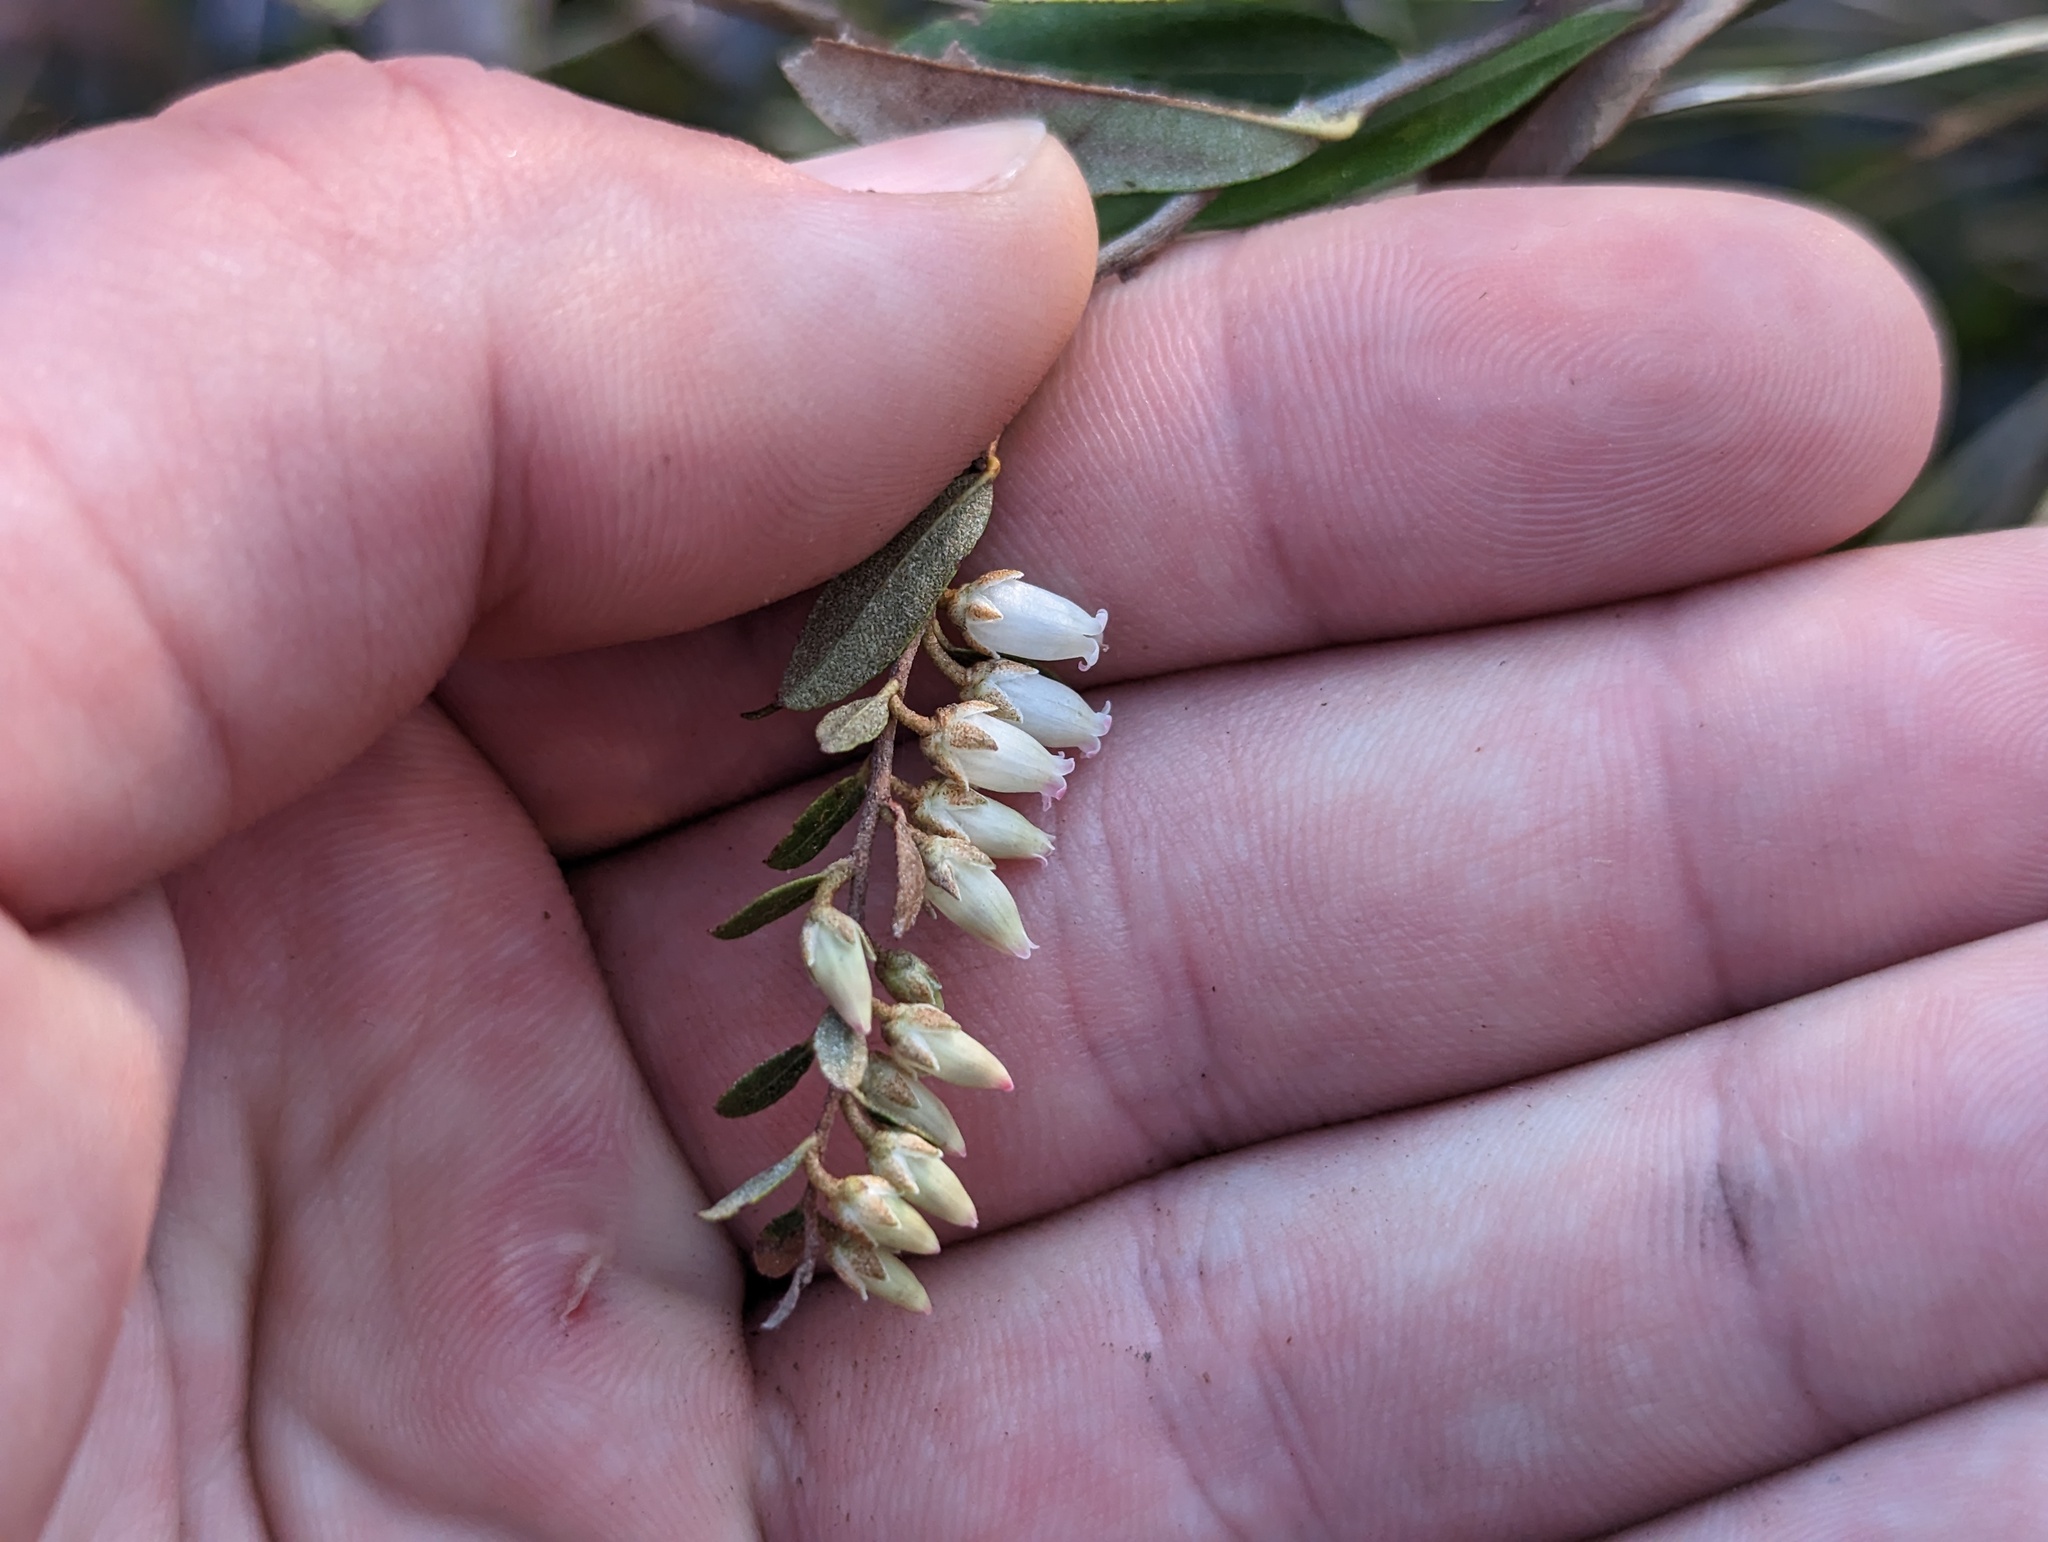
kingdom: Plantae
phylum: Tracheophyta
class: Magnoliopsida
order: Ericales
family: Ericaceae
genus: Chamaedaphne
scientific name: Chamaedaphne calyculata
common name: Leatherleaf
